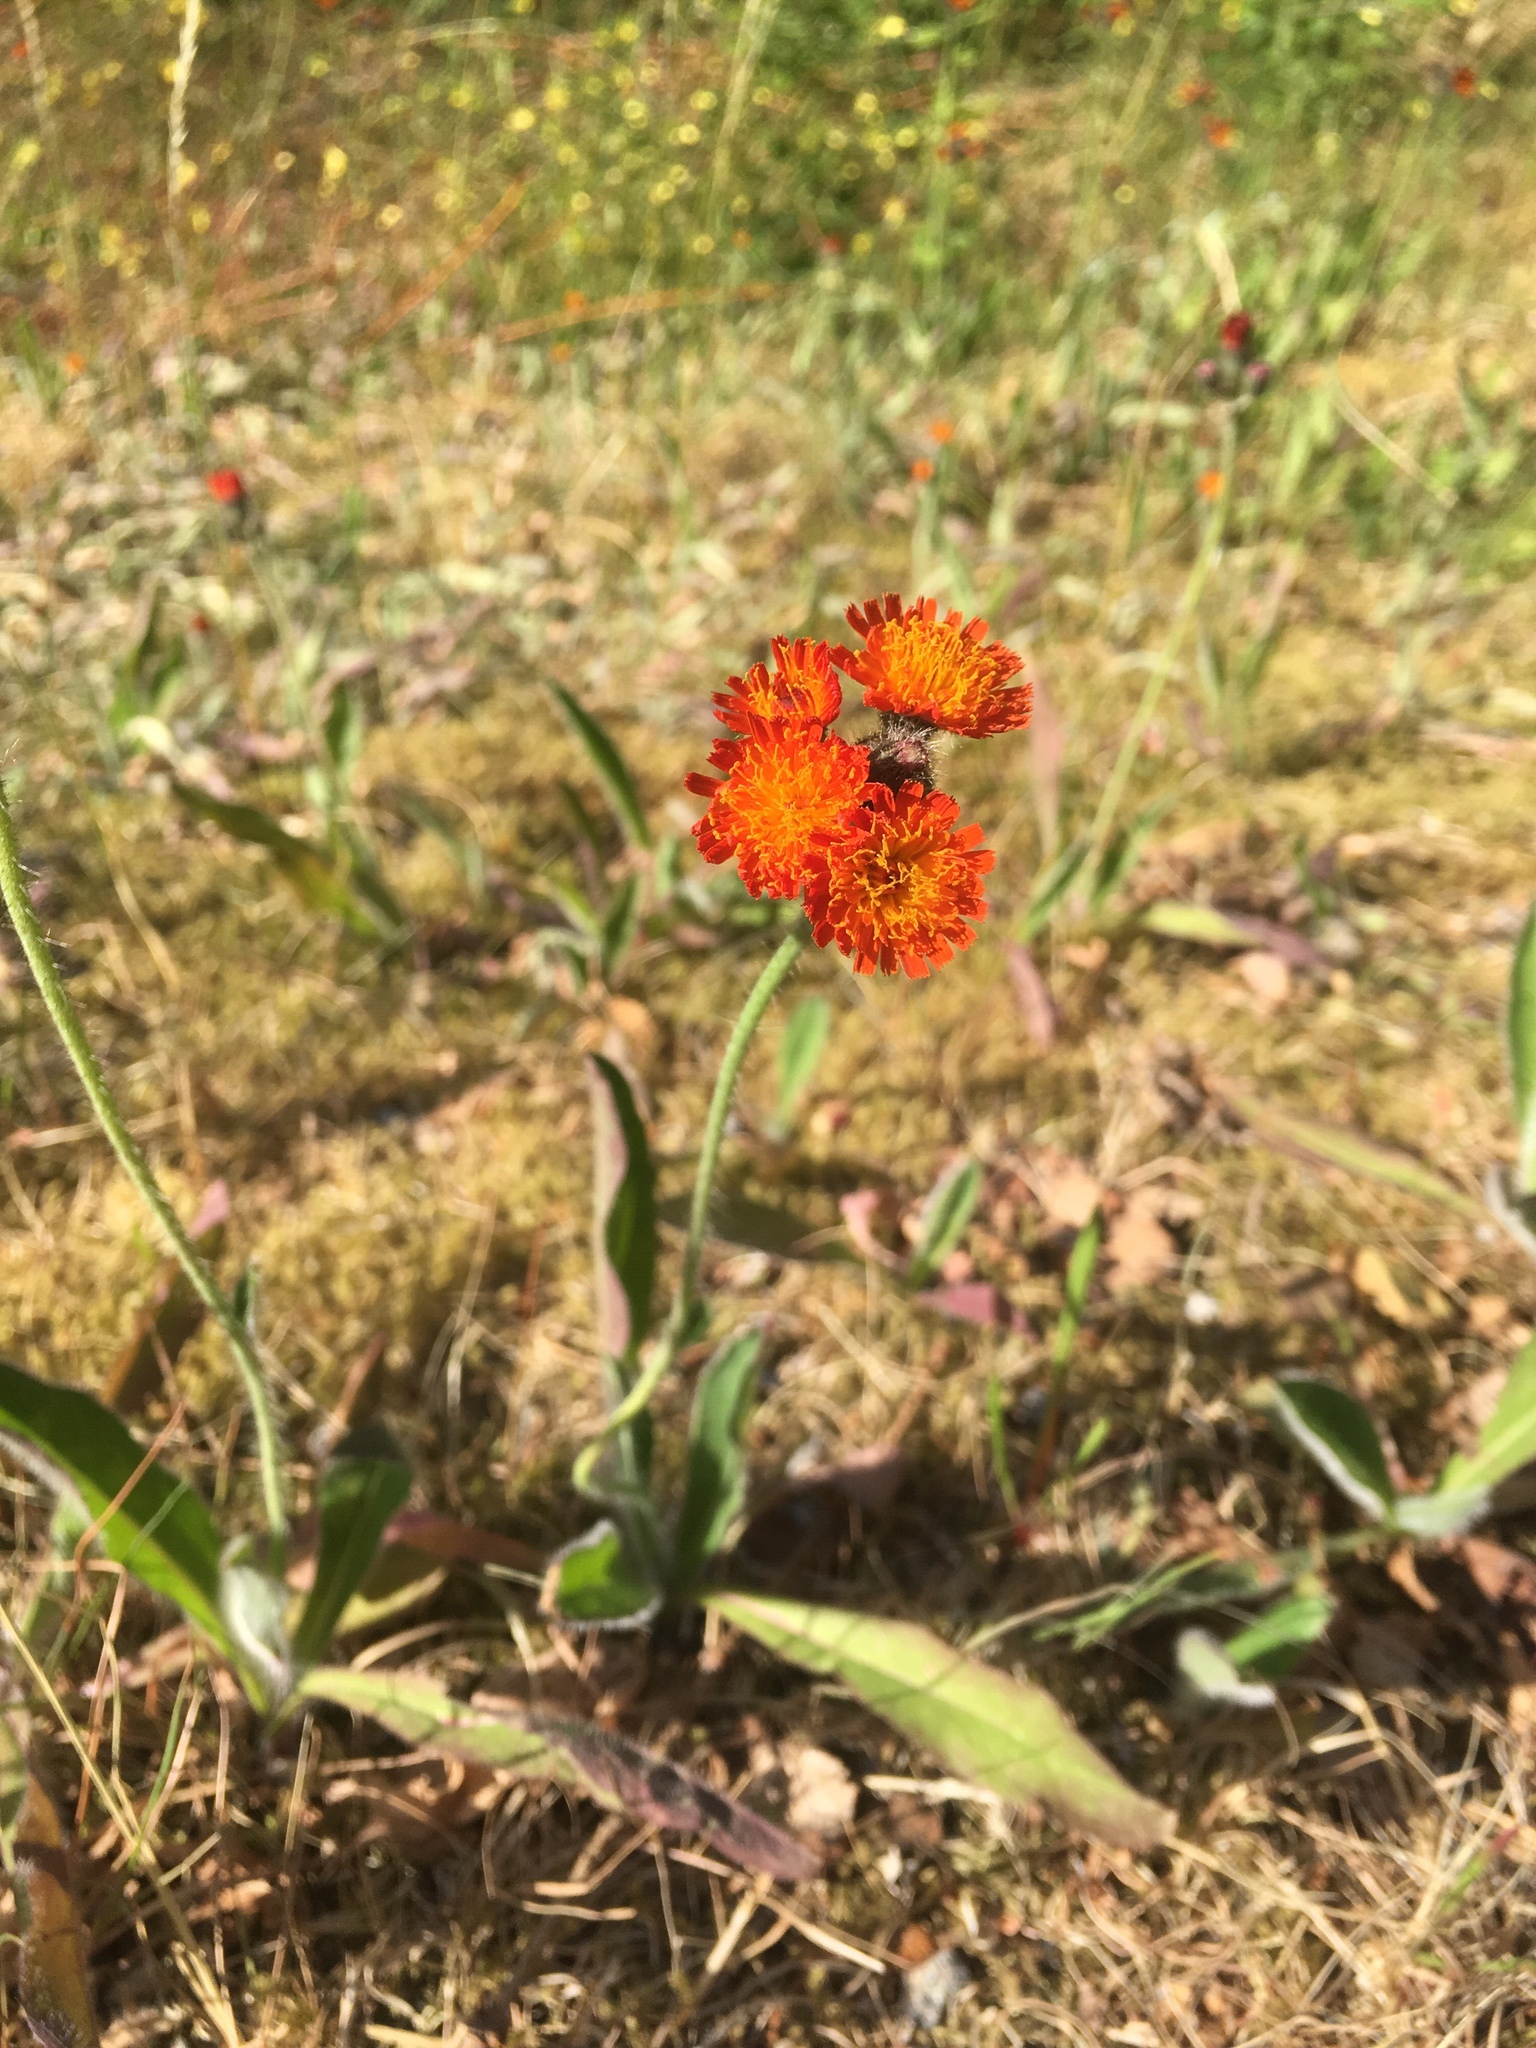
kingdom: Plantae
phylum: Tracheophyta
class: Magnoliopsida
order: Asterales
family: Asteraceae
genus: Pilosella
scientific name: Pilosella aurantiaca
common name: Fox-and-cubs
